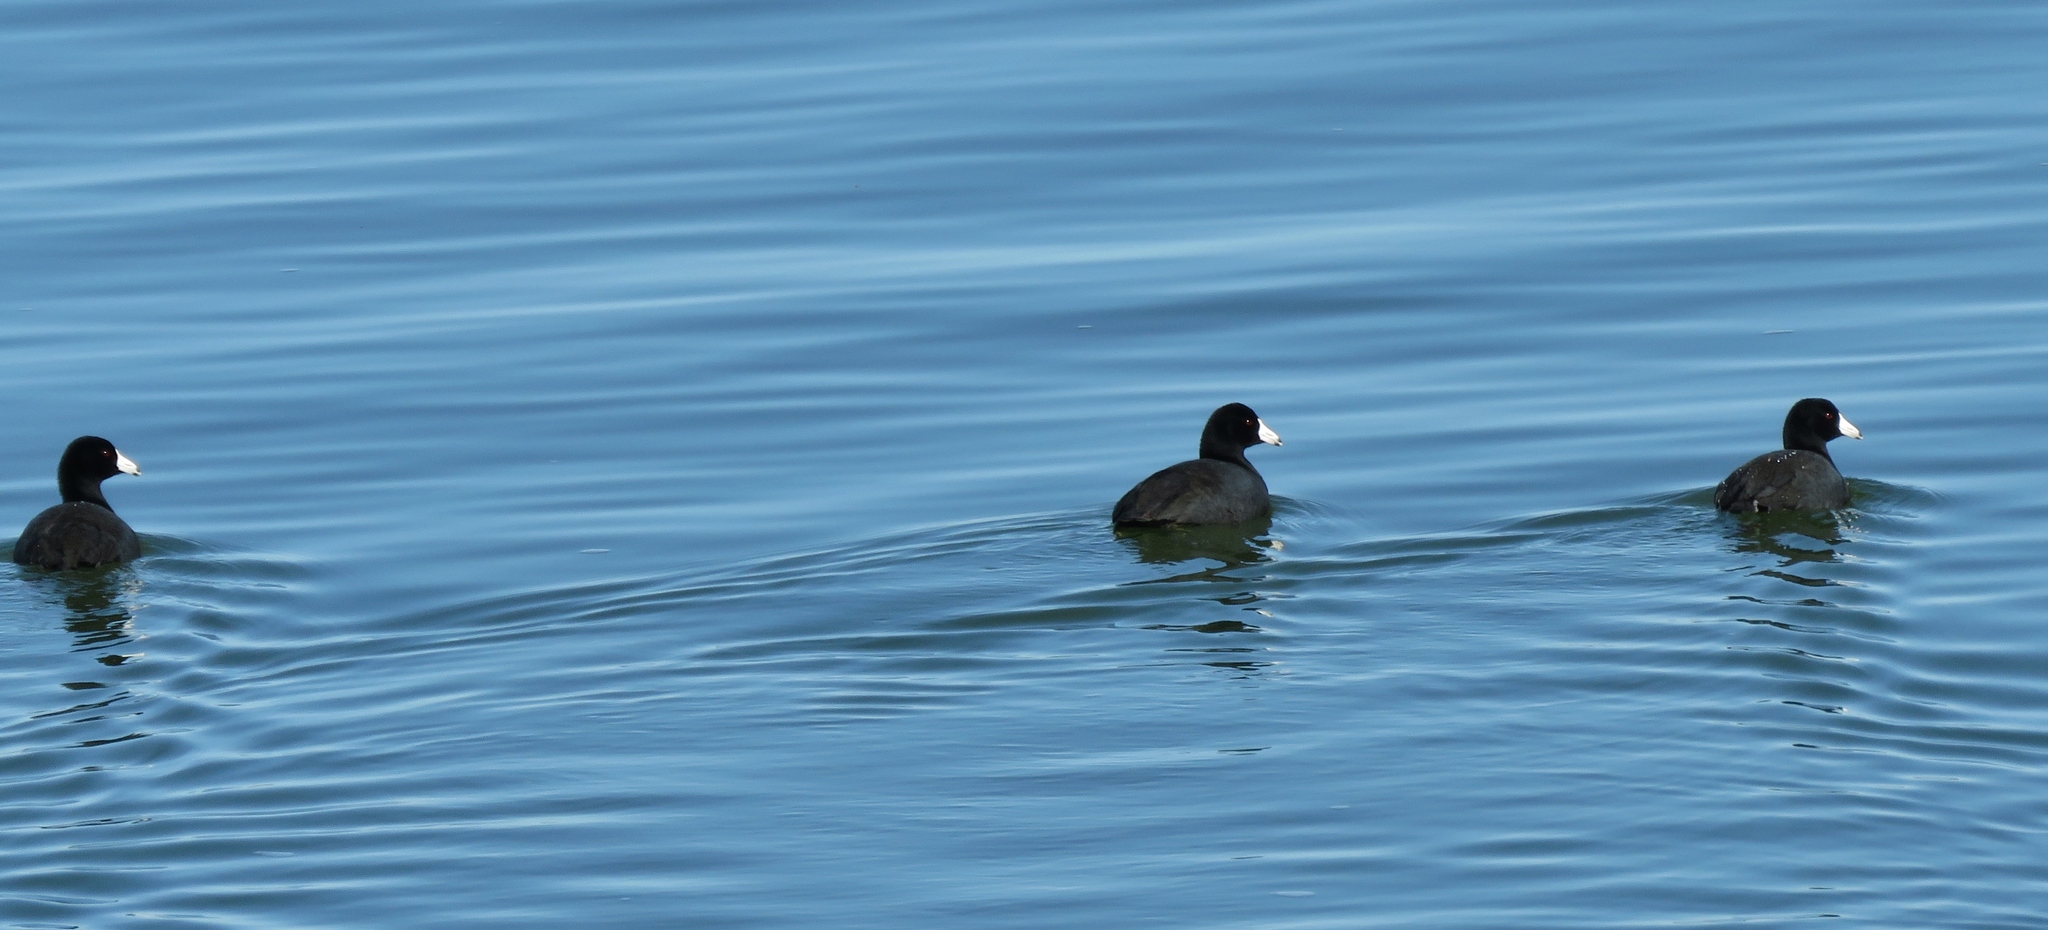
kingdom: Animalia
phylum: Chordata
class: Aves
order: Gruiformes
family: Rallidae
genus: Fulica
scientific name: Fulica americana
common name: American coot
